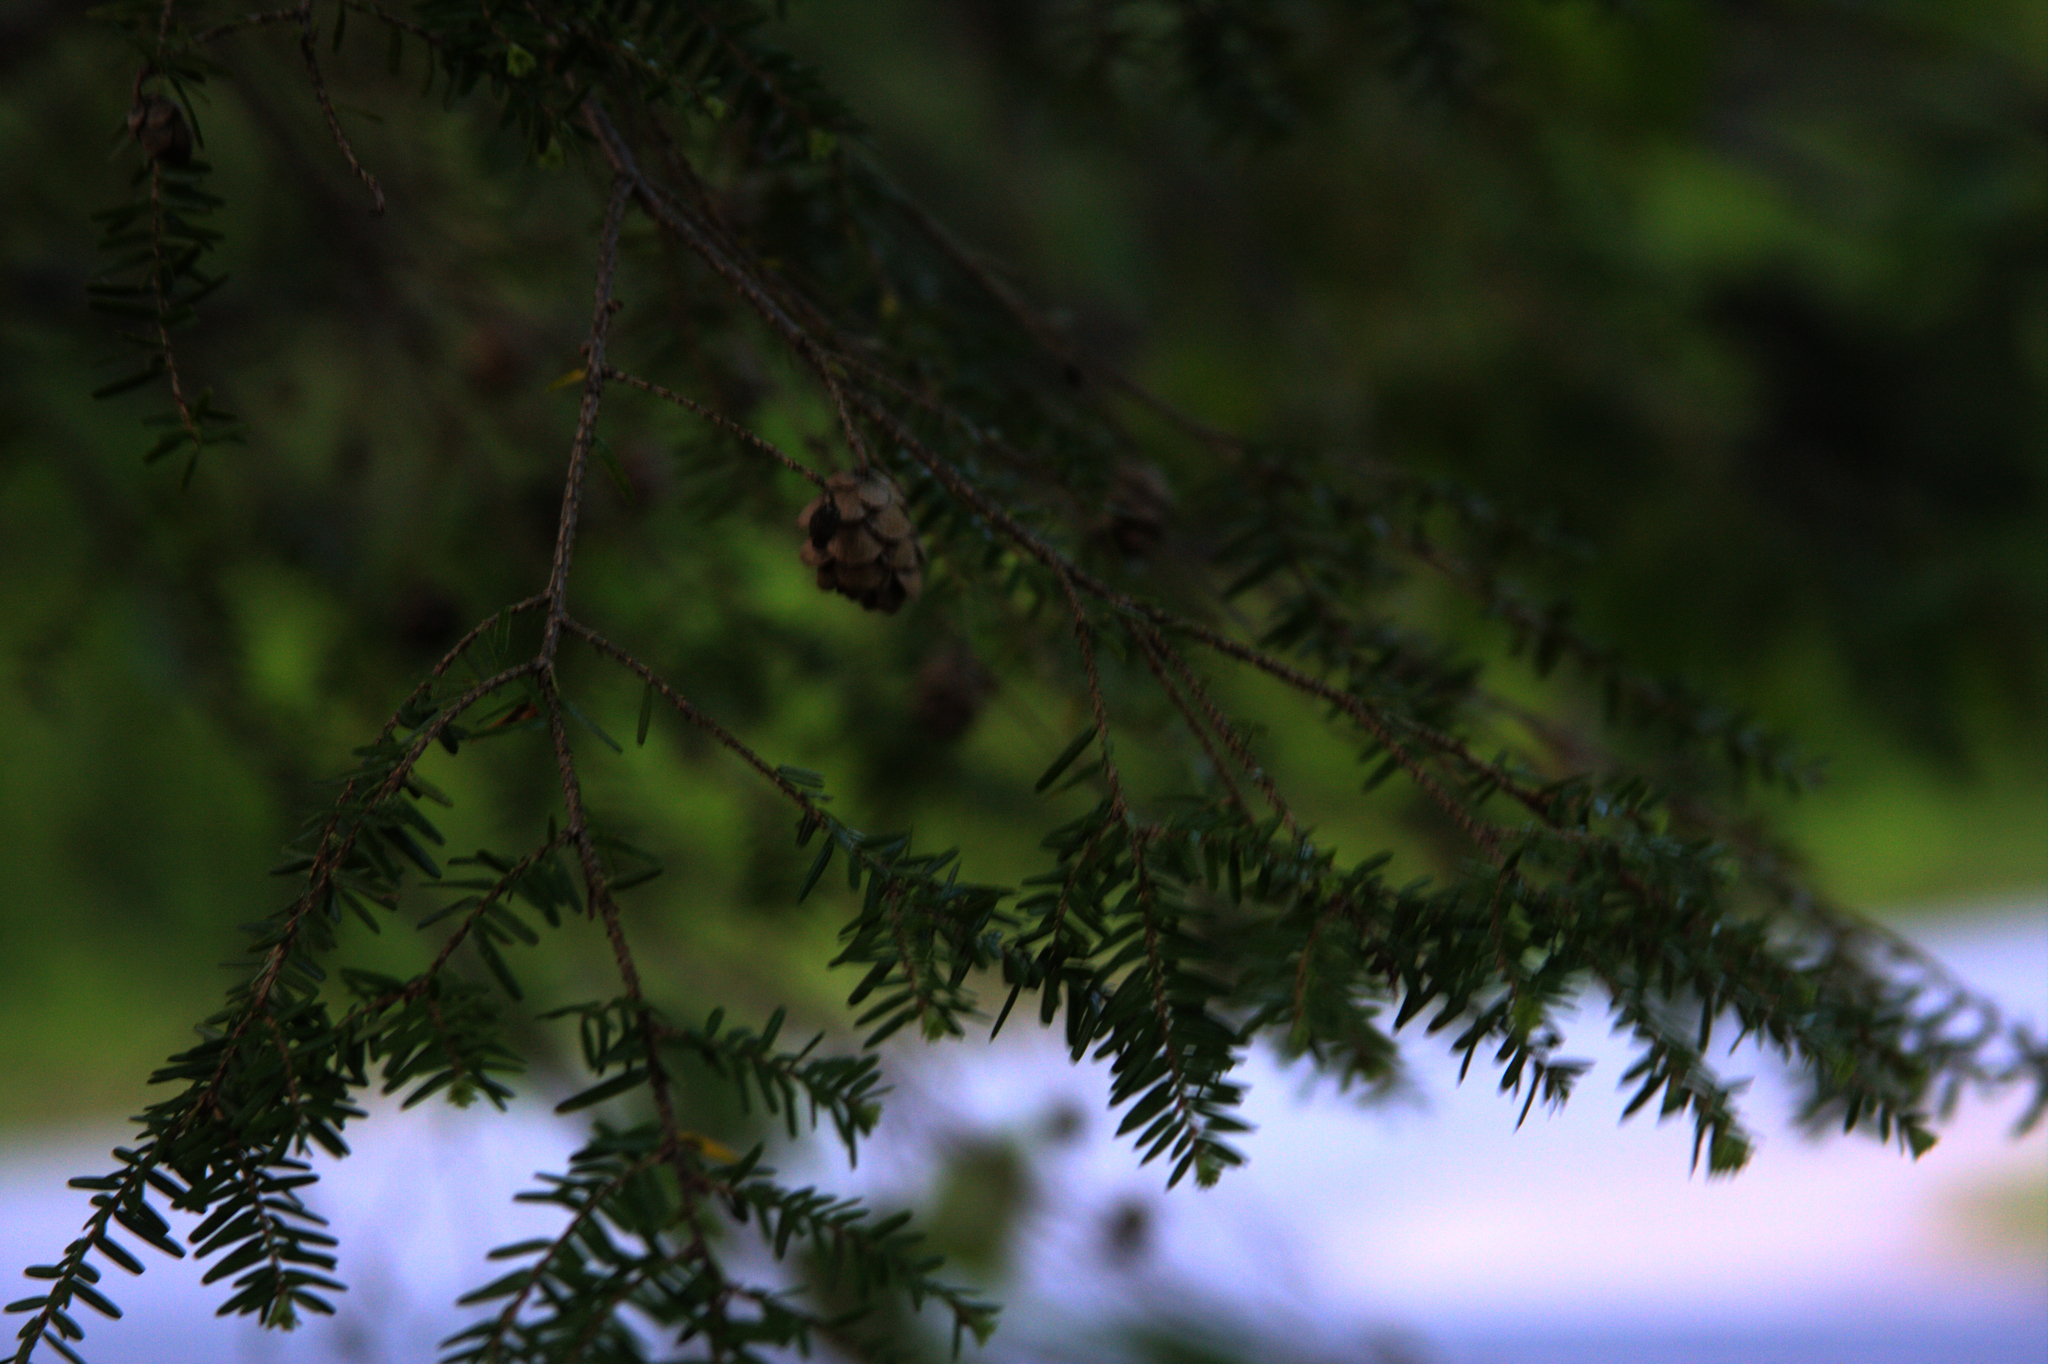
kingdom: Plantae
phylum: Tracheophyta
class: Pinopsida
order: Pinales
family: Pinaceae
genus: Tsuga
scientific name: Tsuga canadensis
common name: Eastern hemlock
